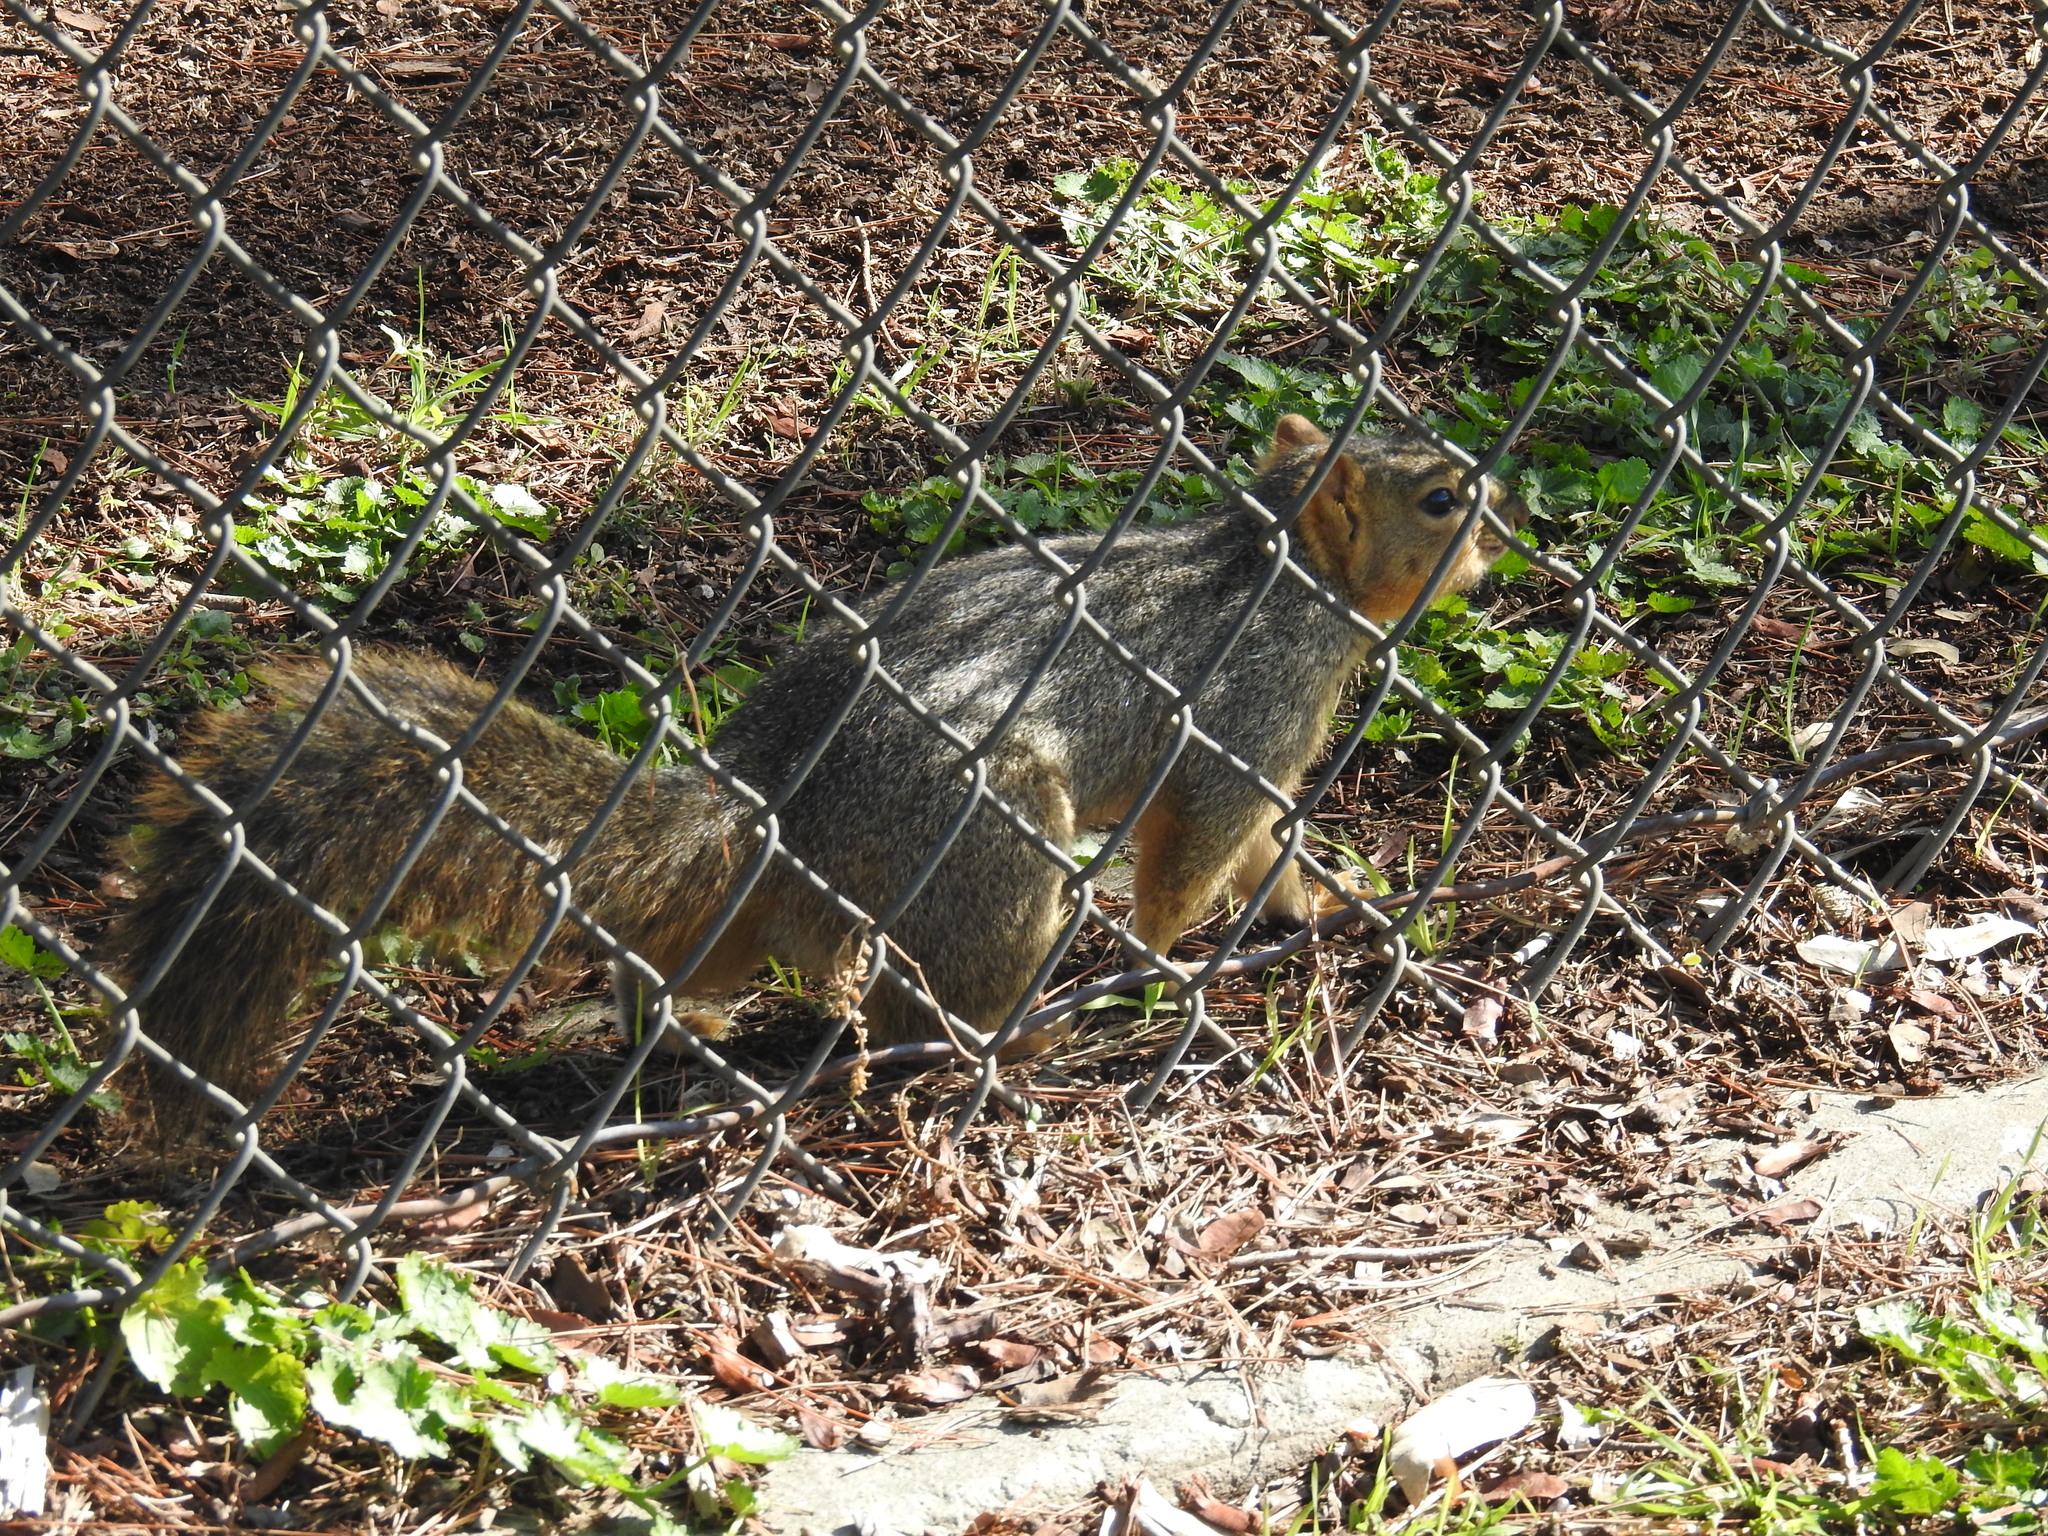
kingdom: Animalia
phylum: Chordata
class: Mammalia
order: Rodentia
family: Sciuridae
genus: Sciurus
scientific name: Sciurus niger
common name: Fox squirrel
